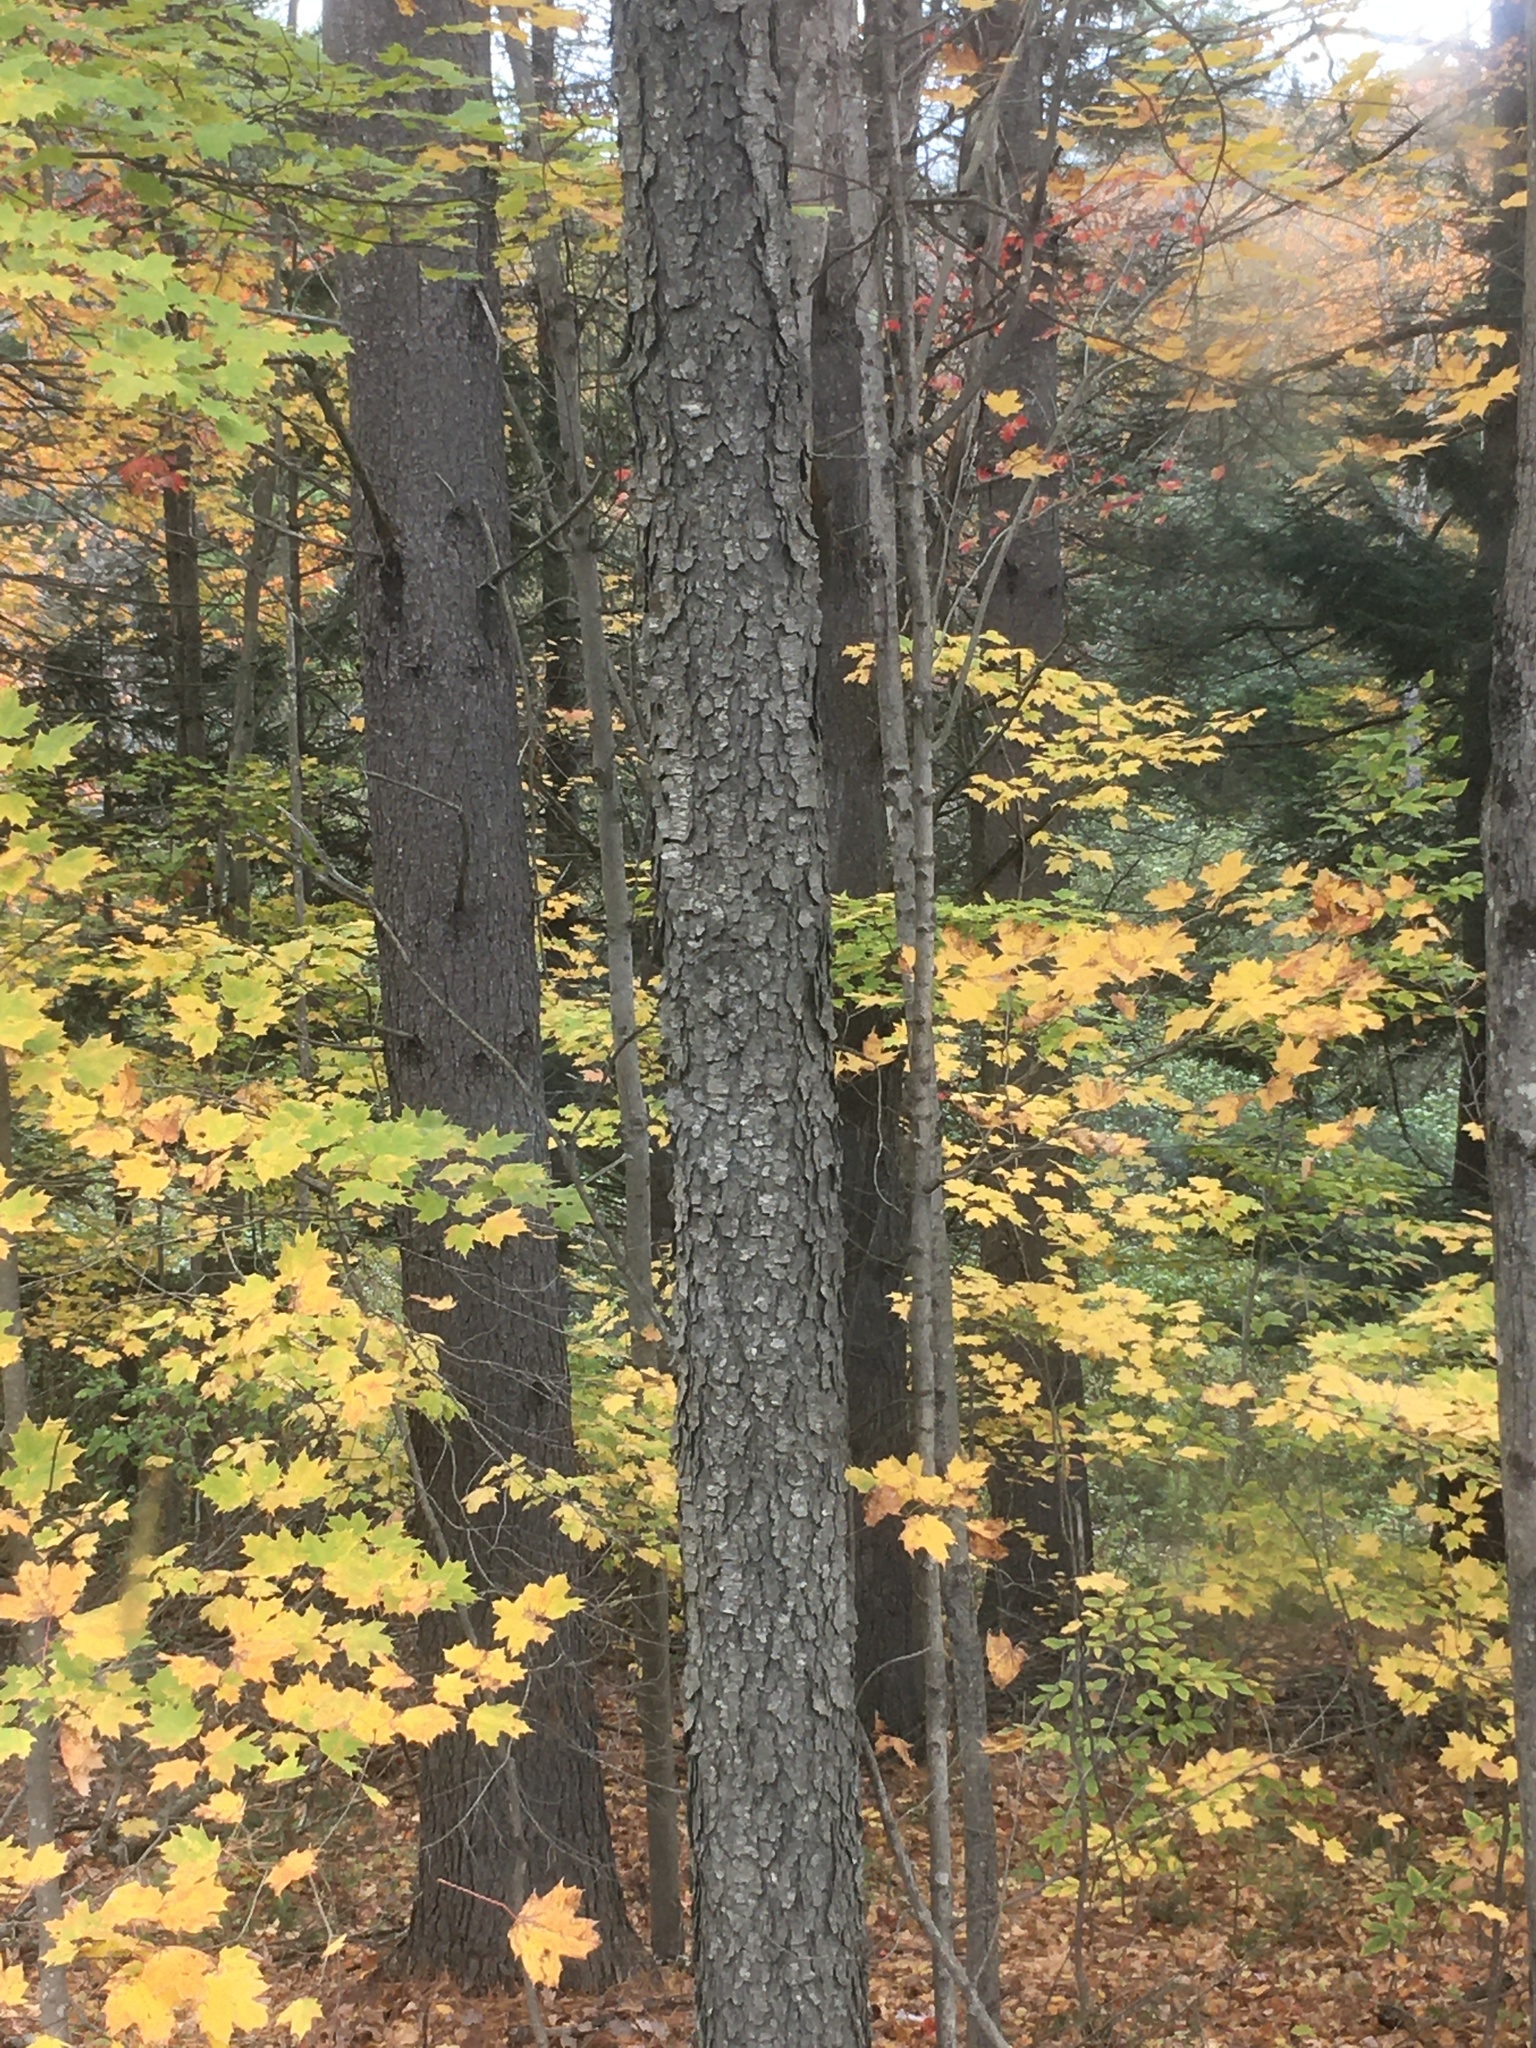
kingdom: Plantae
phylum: Tracheophyta
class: Magnoliopsida
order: Sapindales
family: Sapindaceae
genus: Acer
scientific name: Acer saccharum
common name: Sugar maple
